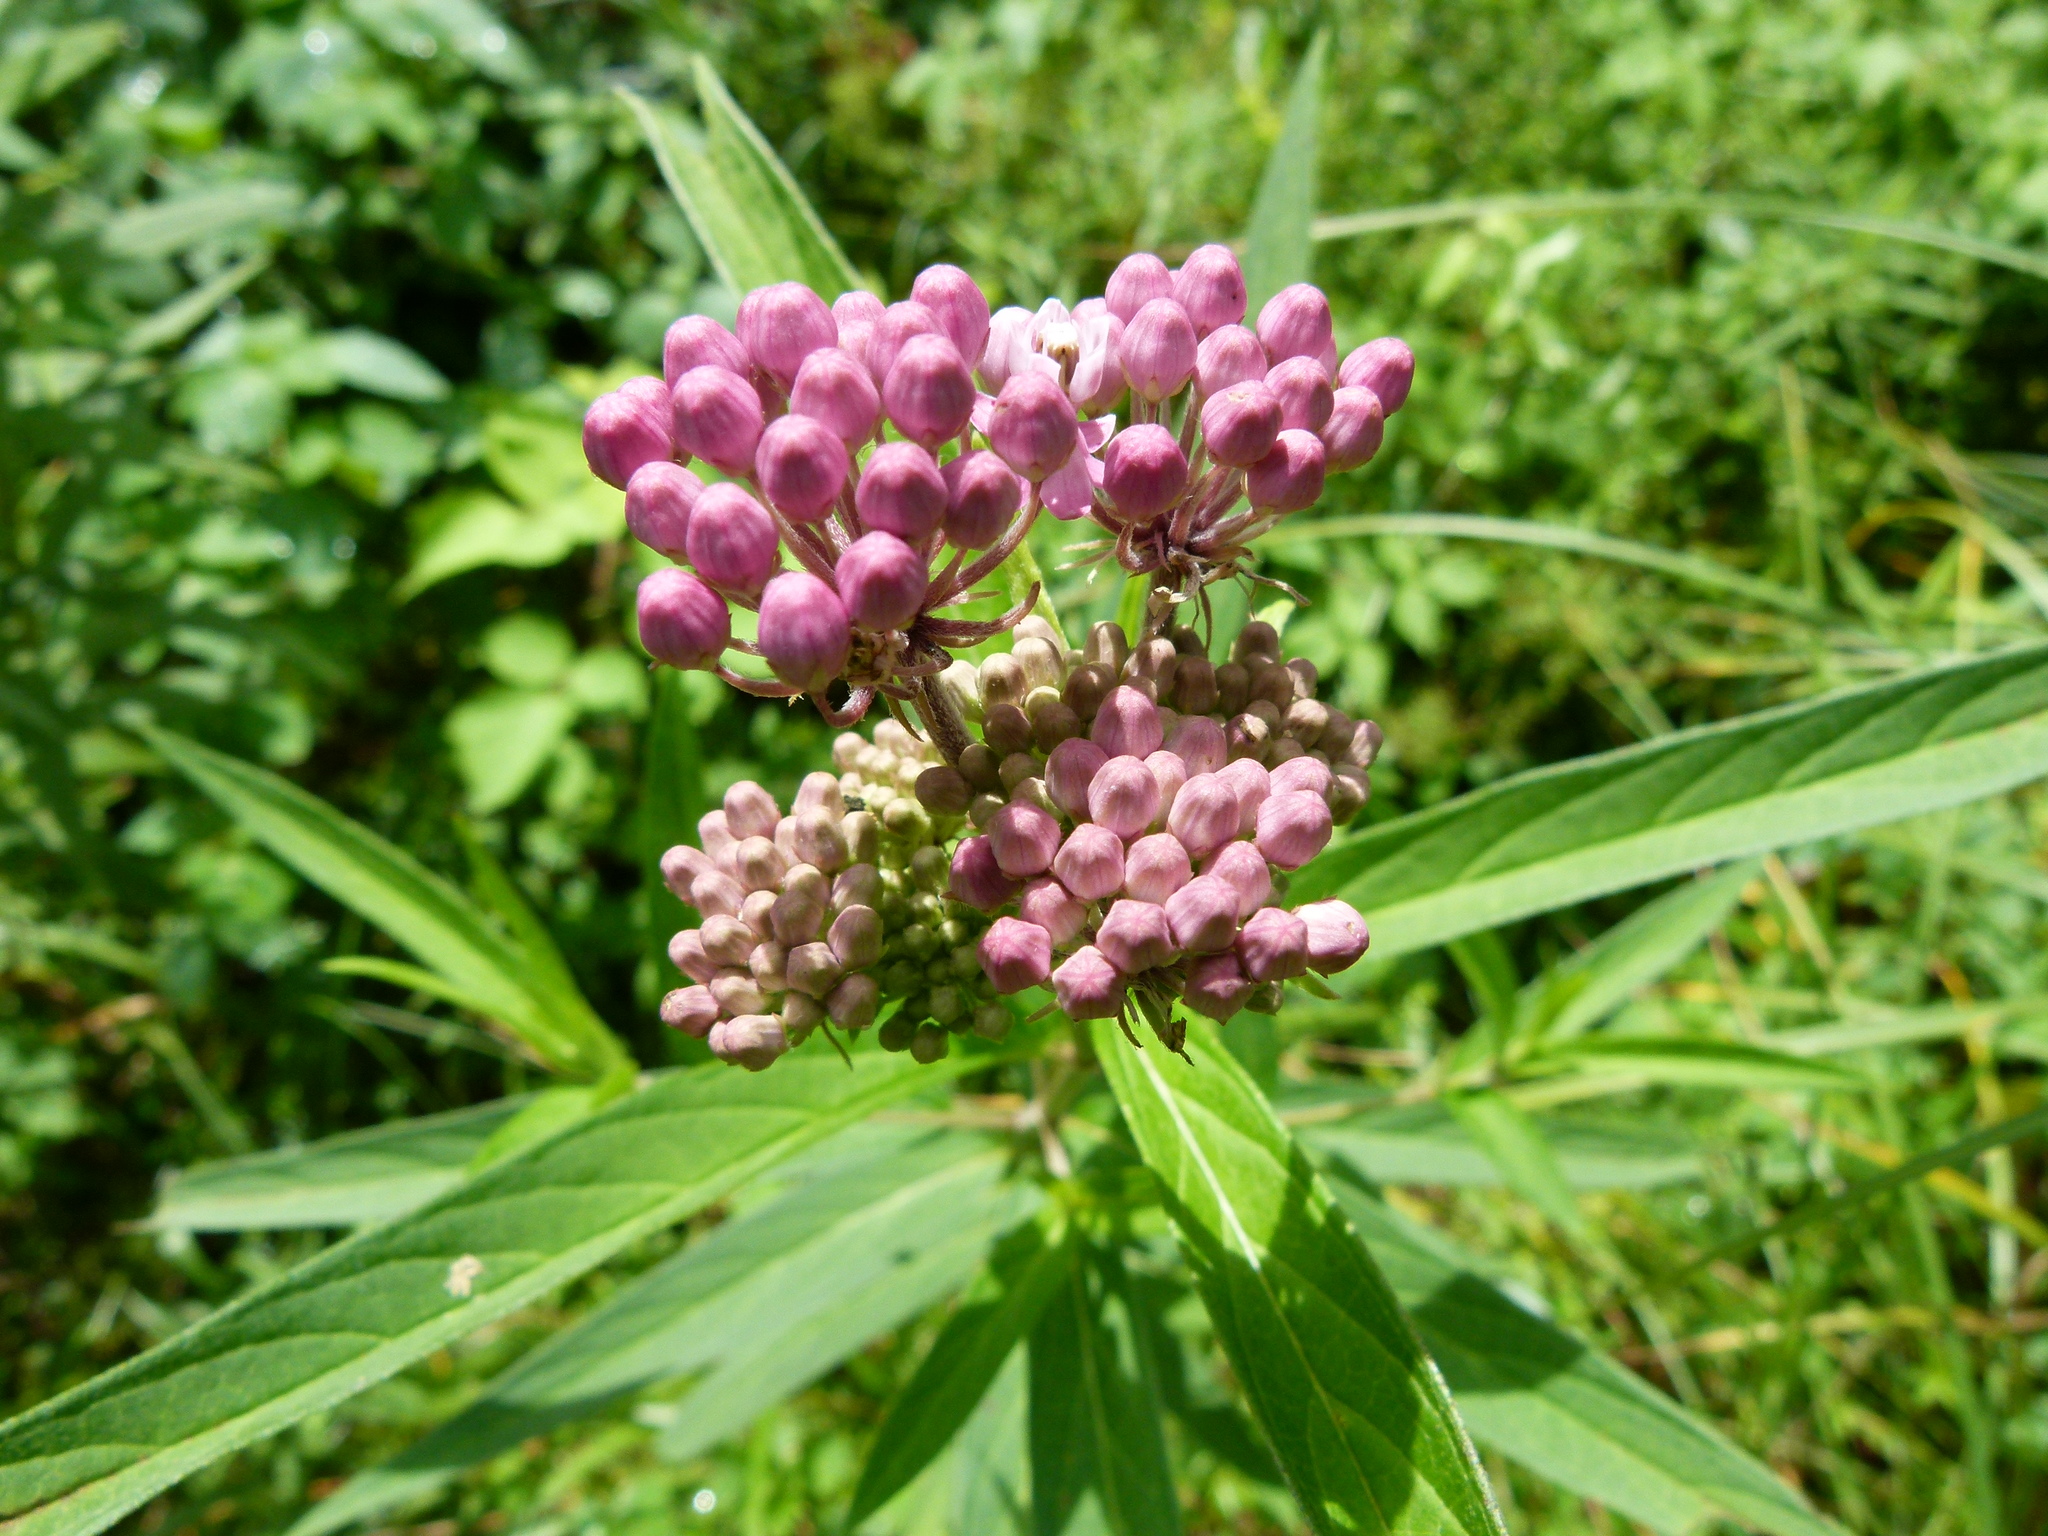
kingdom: Plantae
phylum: Tracheophyta
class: Magnoliopsida
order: Gentianales
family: Apocynaceae
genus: Asclepias
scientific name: Asclepias incarnata
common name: Swamp milkweed
